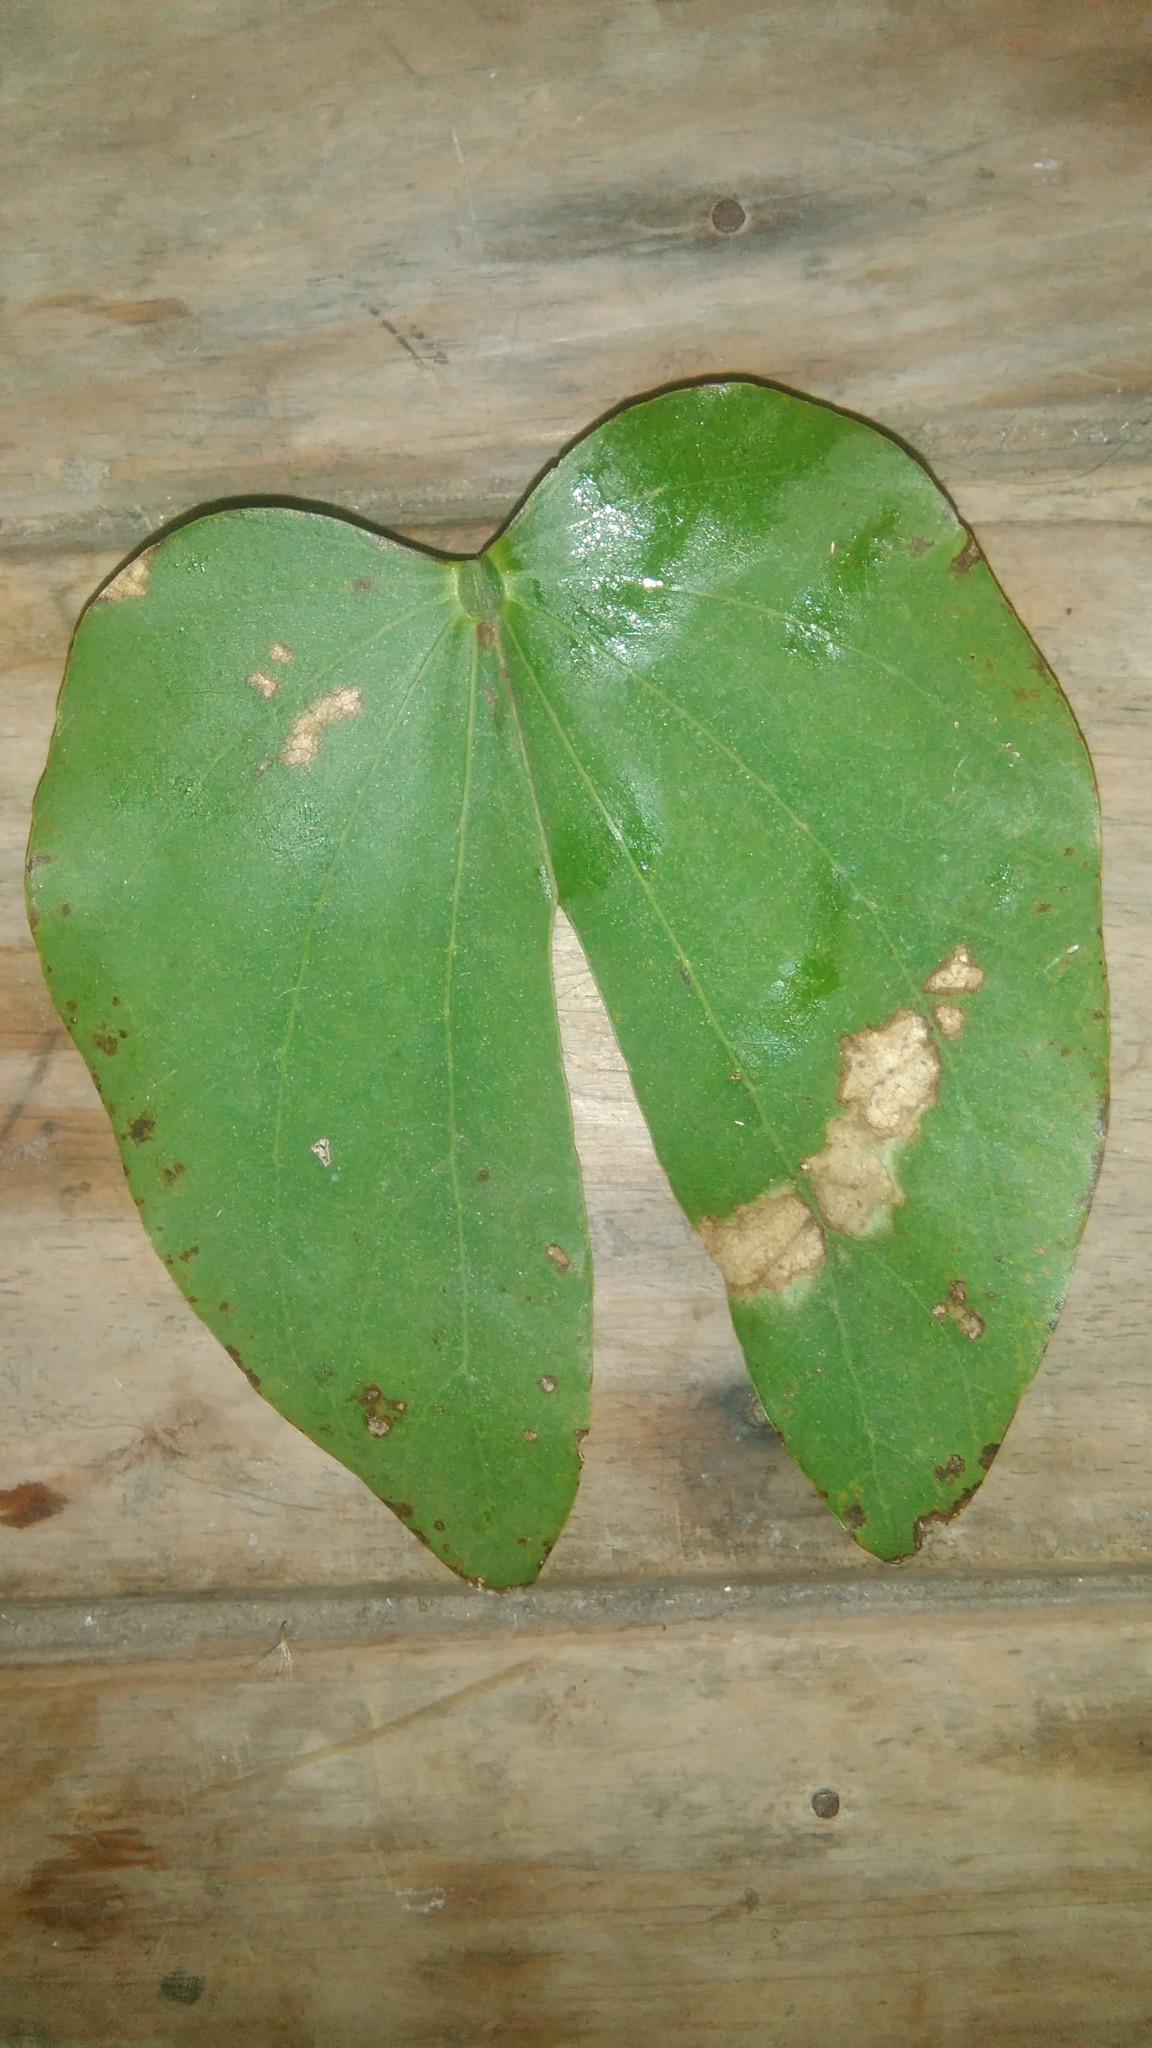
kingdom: Plantae
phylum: Tracheophyta
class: Magnoliopsida
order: Fabales
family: Fabaceae
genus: Bauhinia
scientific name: Bauhinia forficata
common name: Orchid tree
